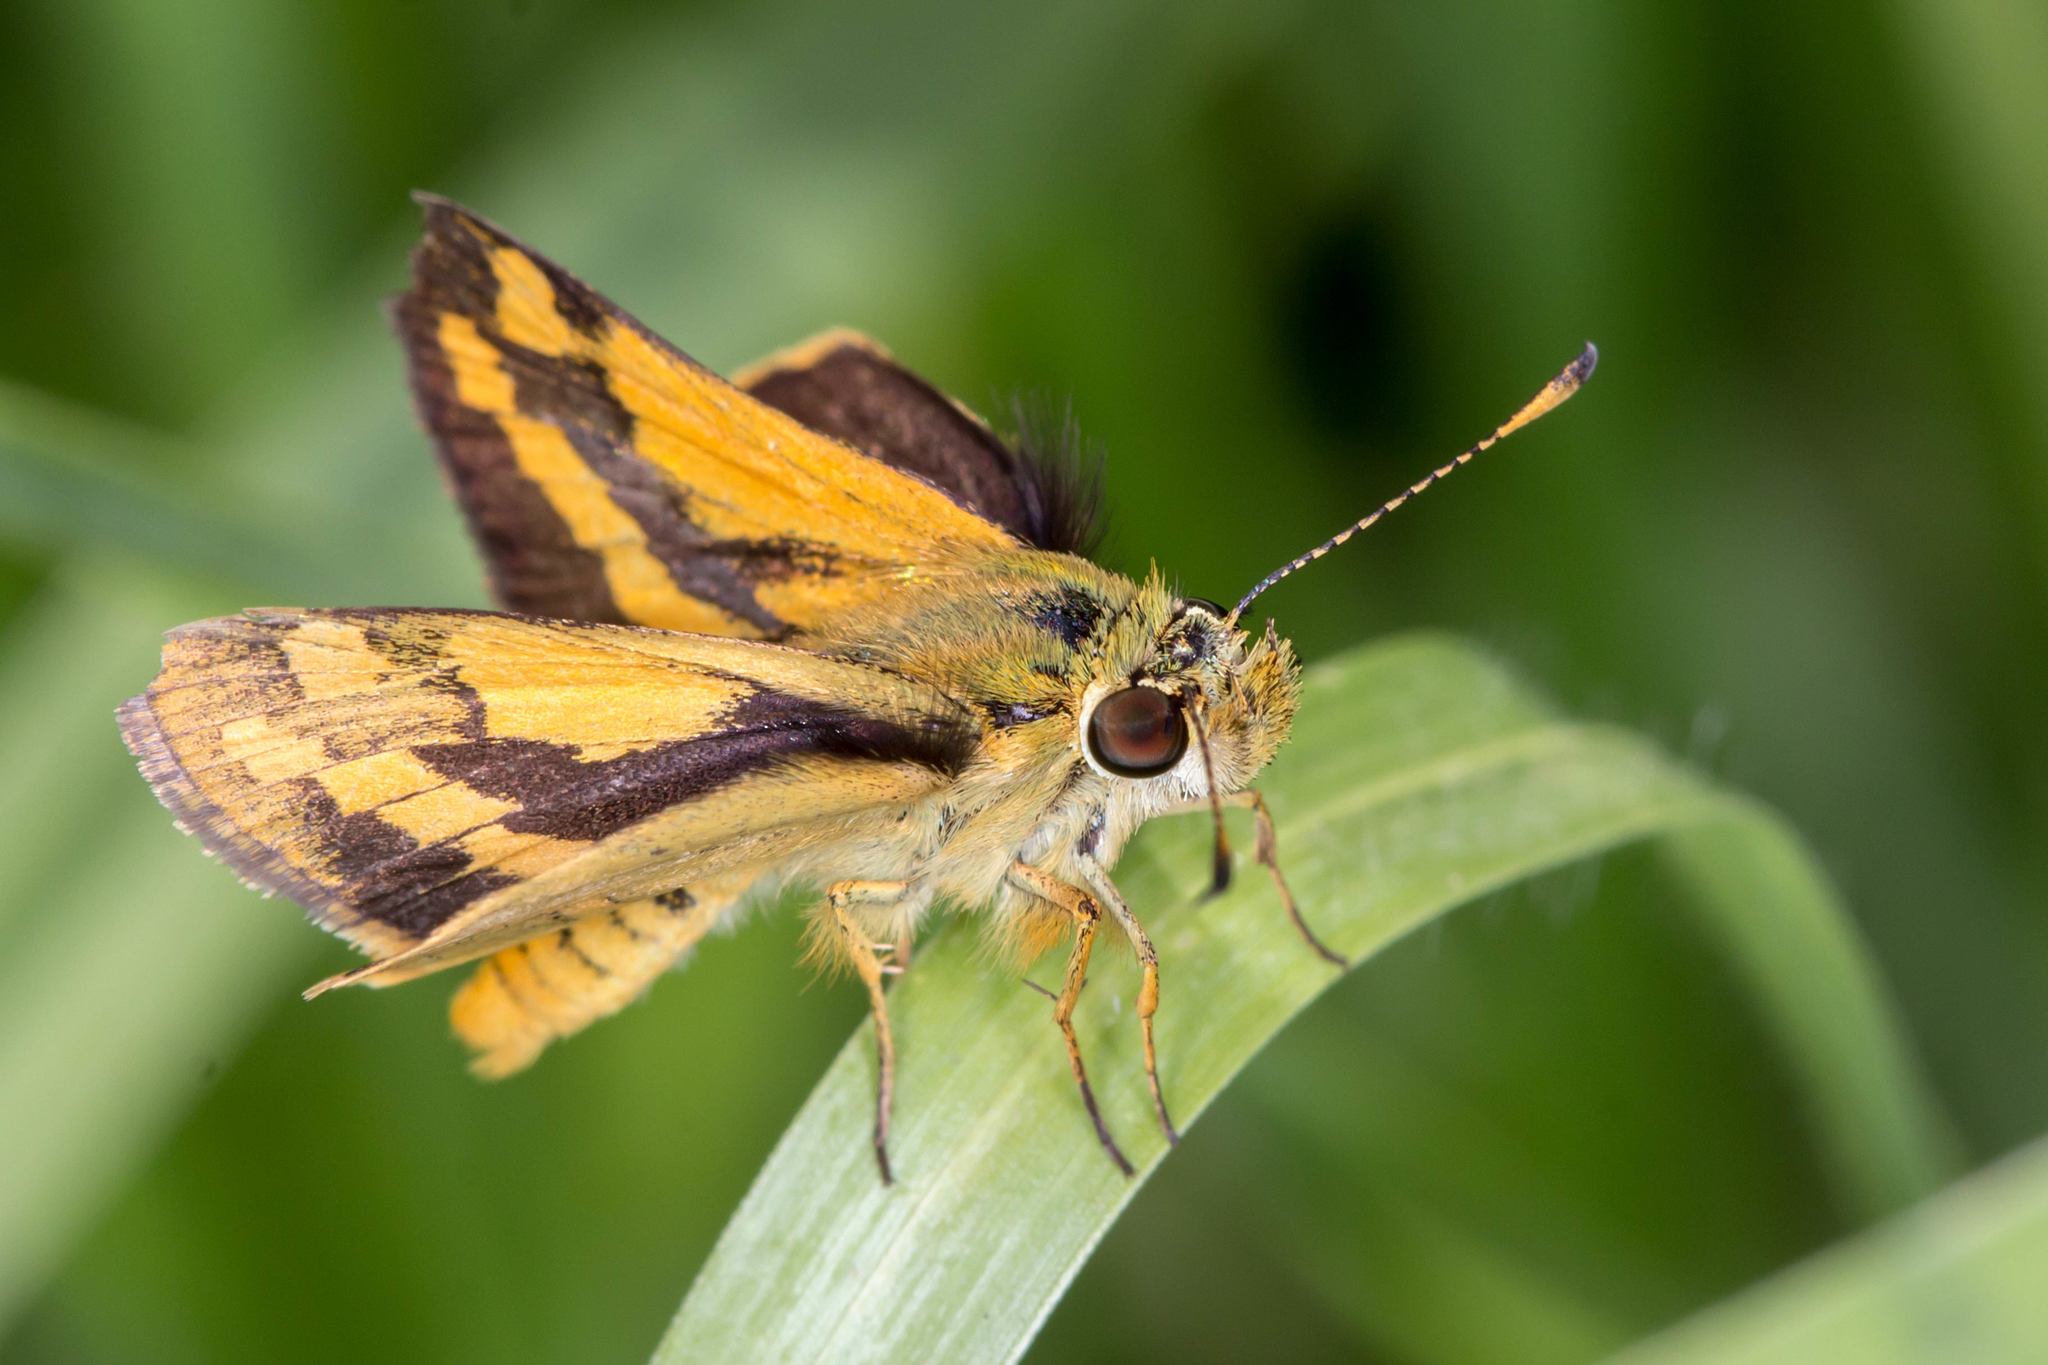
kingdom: Animalia
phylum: Arthropoda
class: Insecta
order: Lepidoptera
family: Hesperiidae
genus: Ocybadistes
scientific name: Ocybadistes walkeri
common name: Yellow-banded dart
